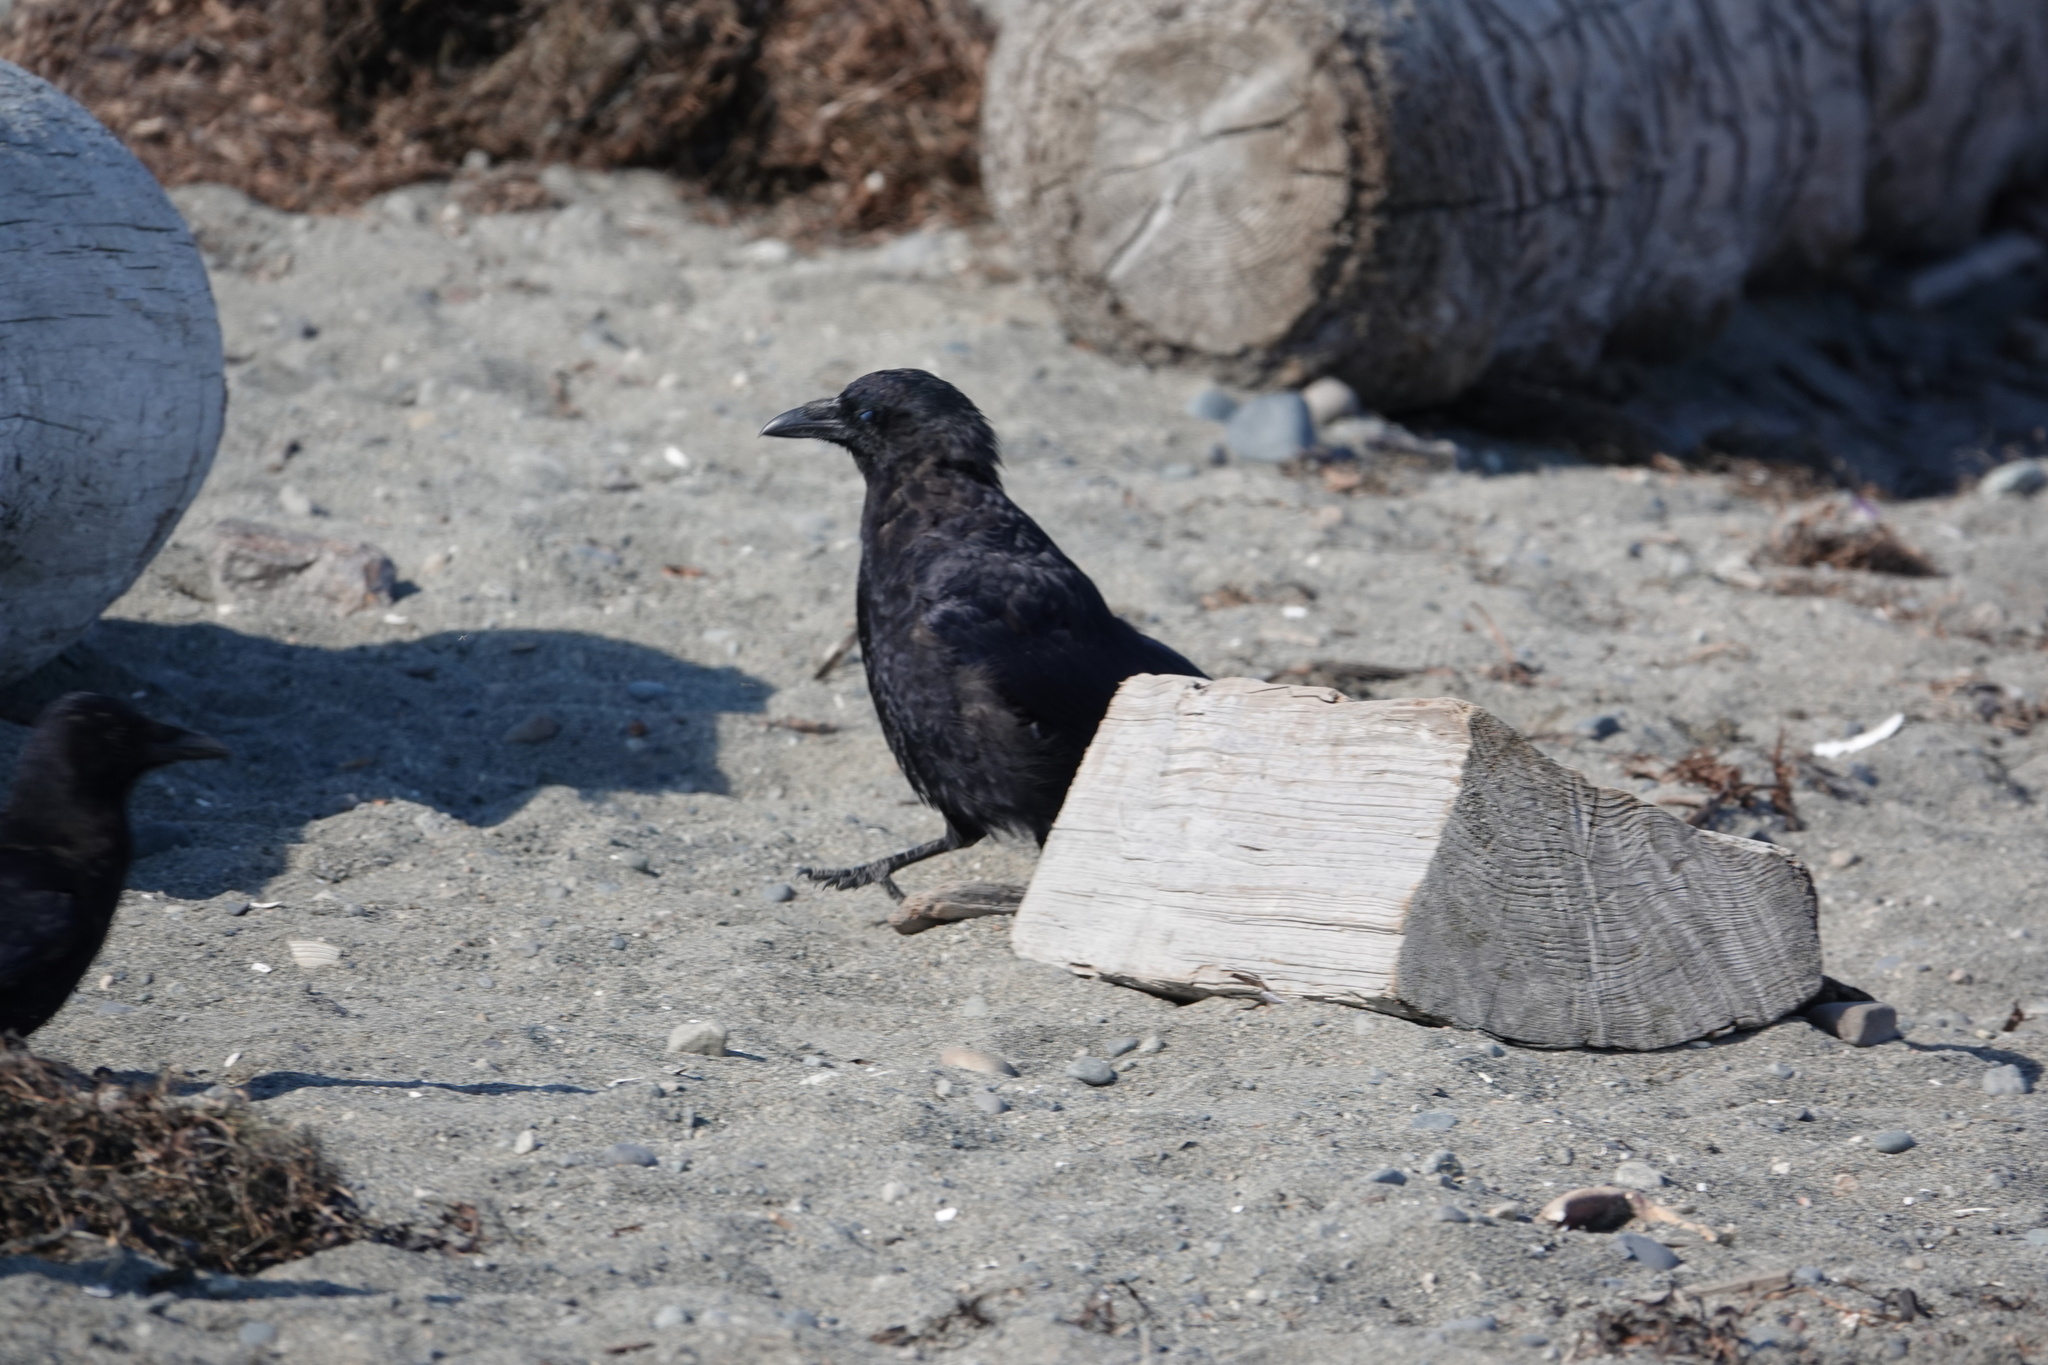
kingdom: Animalia
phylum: Chordata
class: Aves
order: Passeriformes
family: Corvidae
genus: Corvus
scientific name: Corvus brachyrhynchos
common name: American crow
